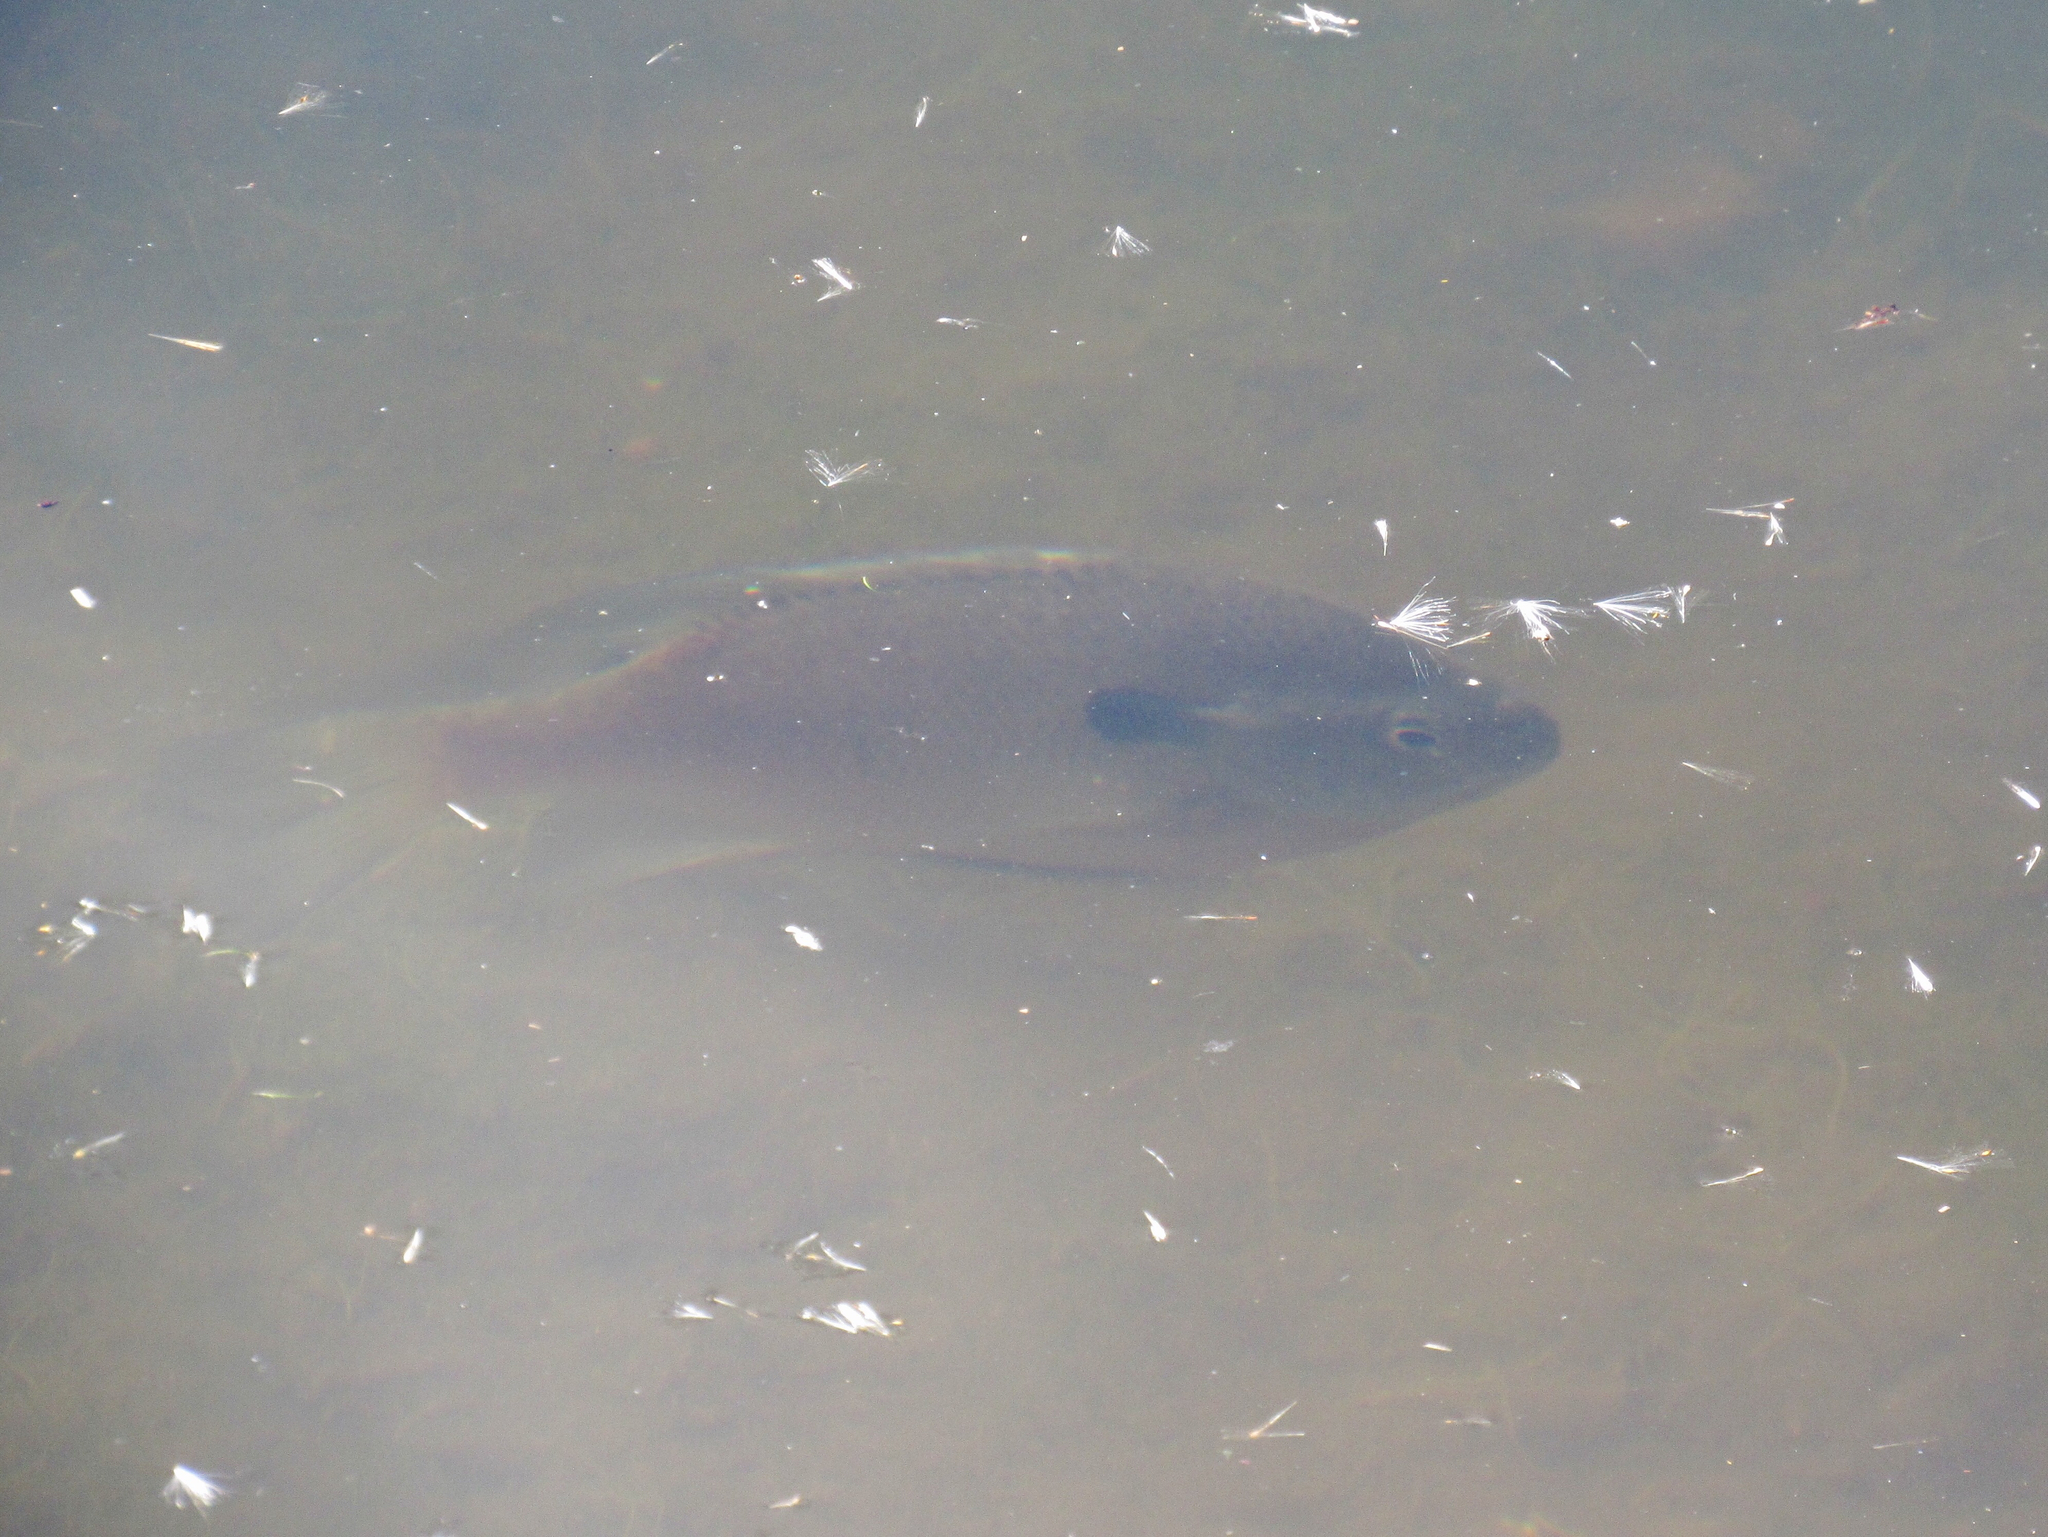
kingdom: Animalia
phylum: Chordata
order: Perciformes
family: Centrarchidae
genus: Lepomis
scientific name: Lepomis macrochirus
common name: Bluegill
